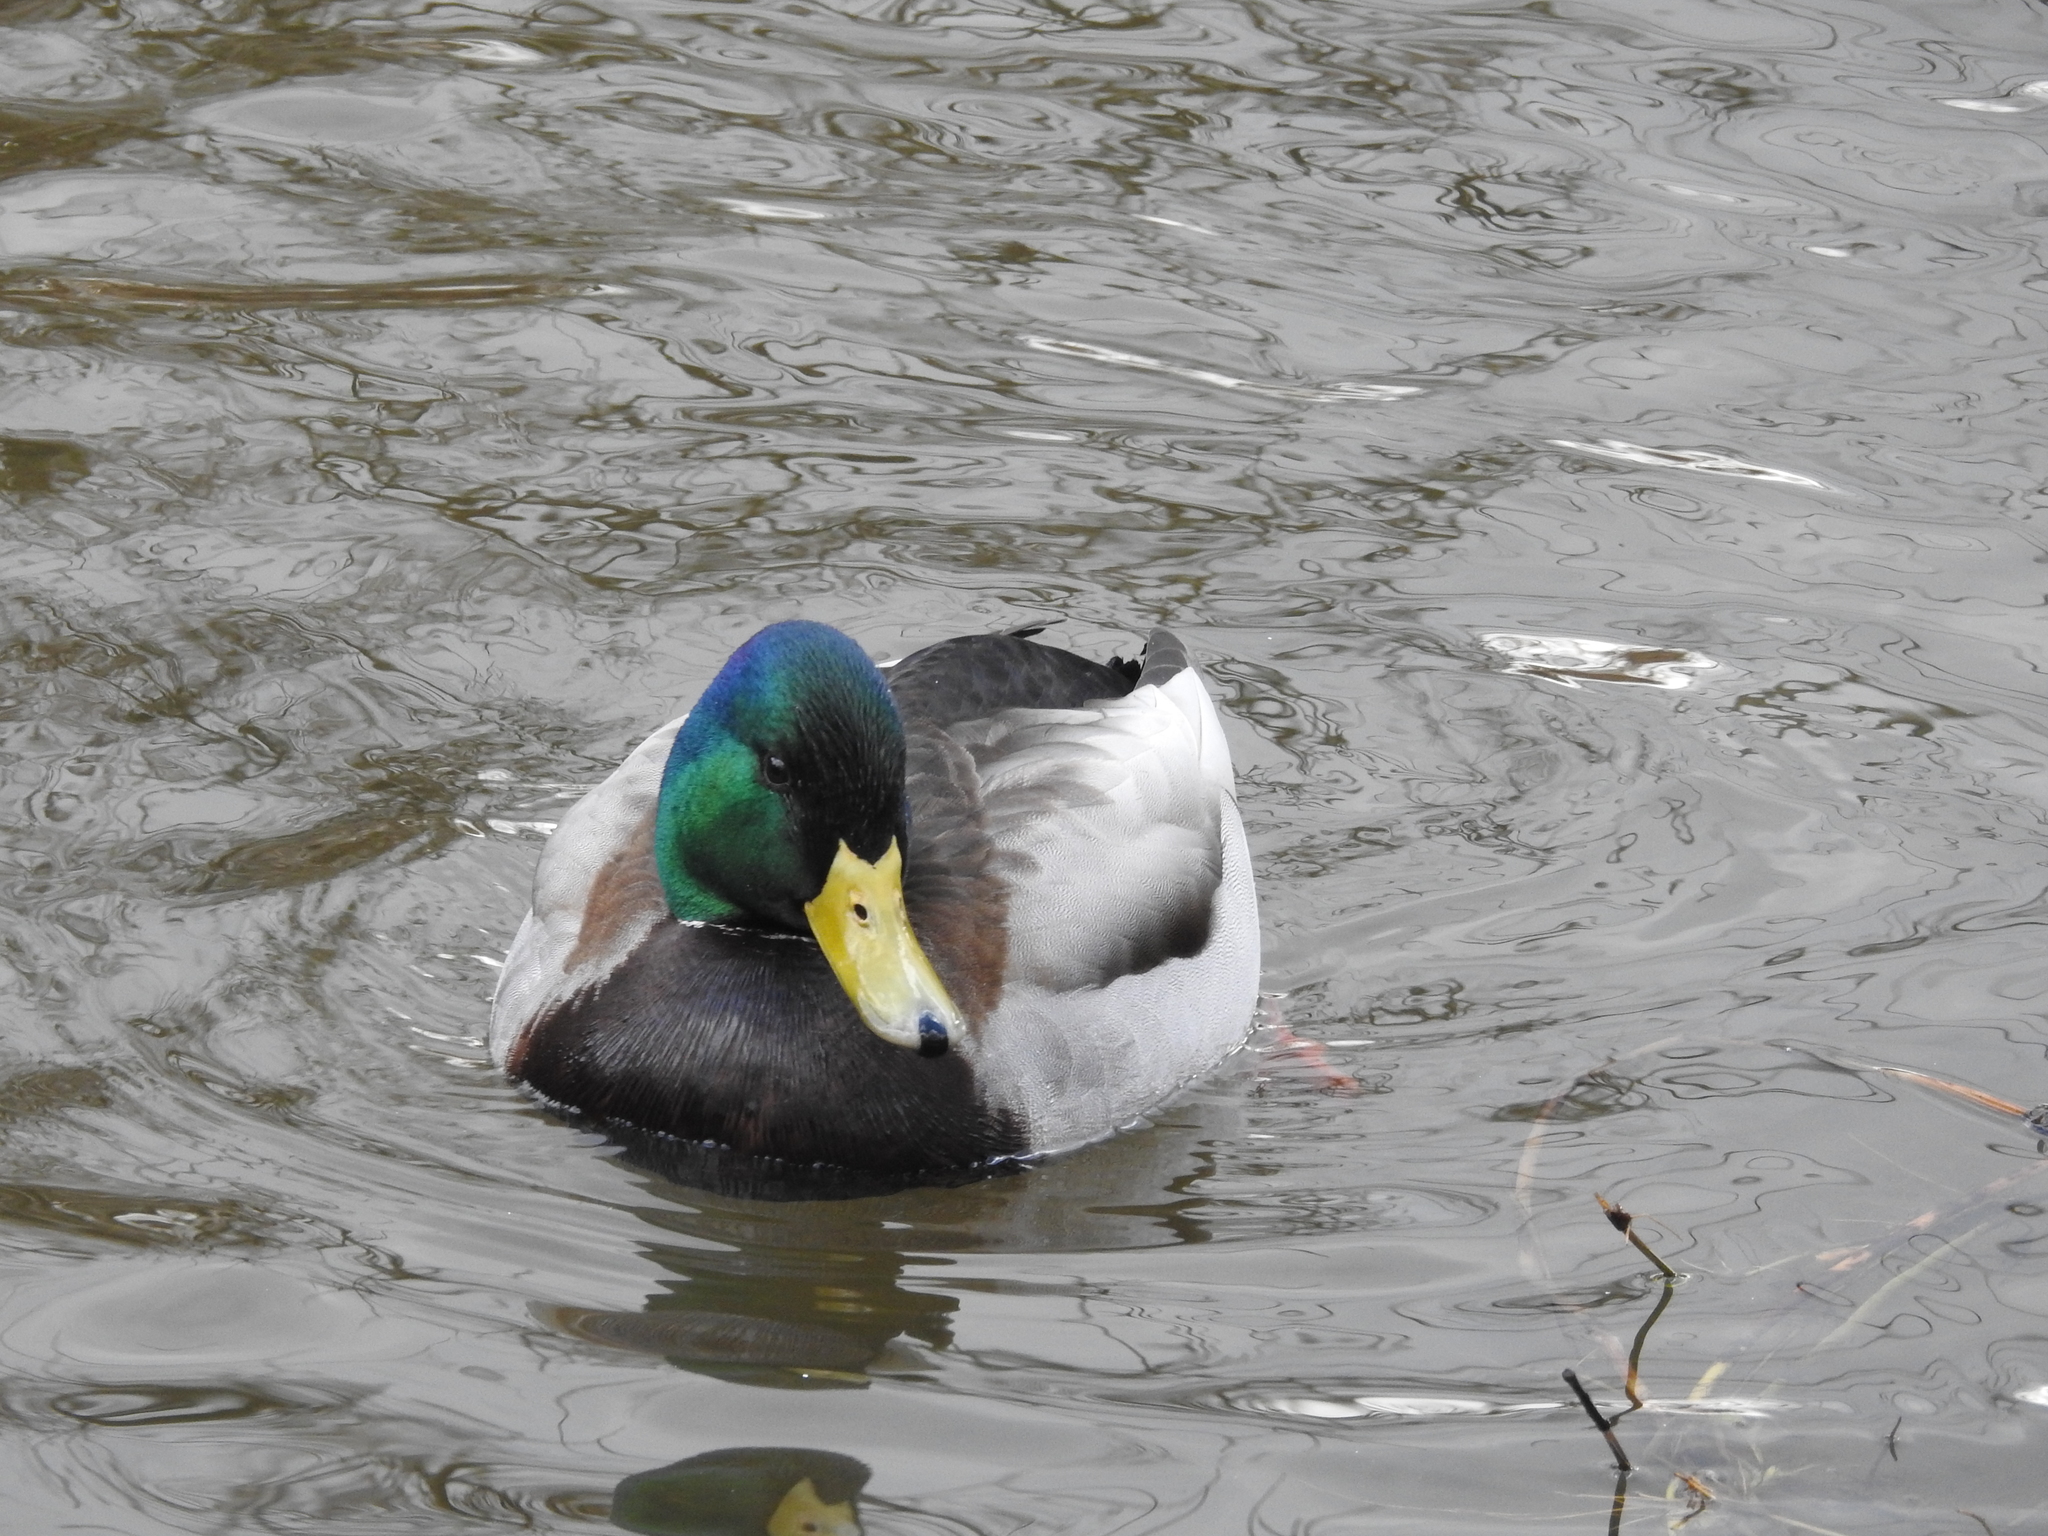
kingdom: Animalia
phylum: Chordata
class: Aves
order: Anseriformes
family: Anatidae
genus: Anas
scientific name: Anas platyrhynchos
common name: Mallard
